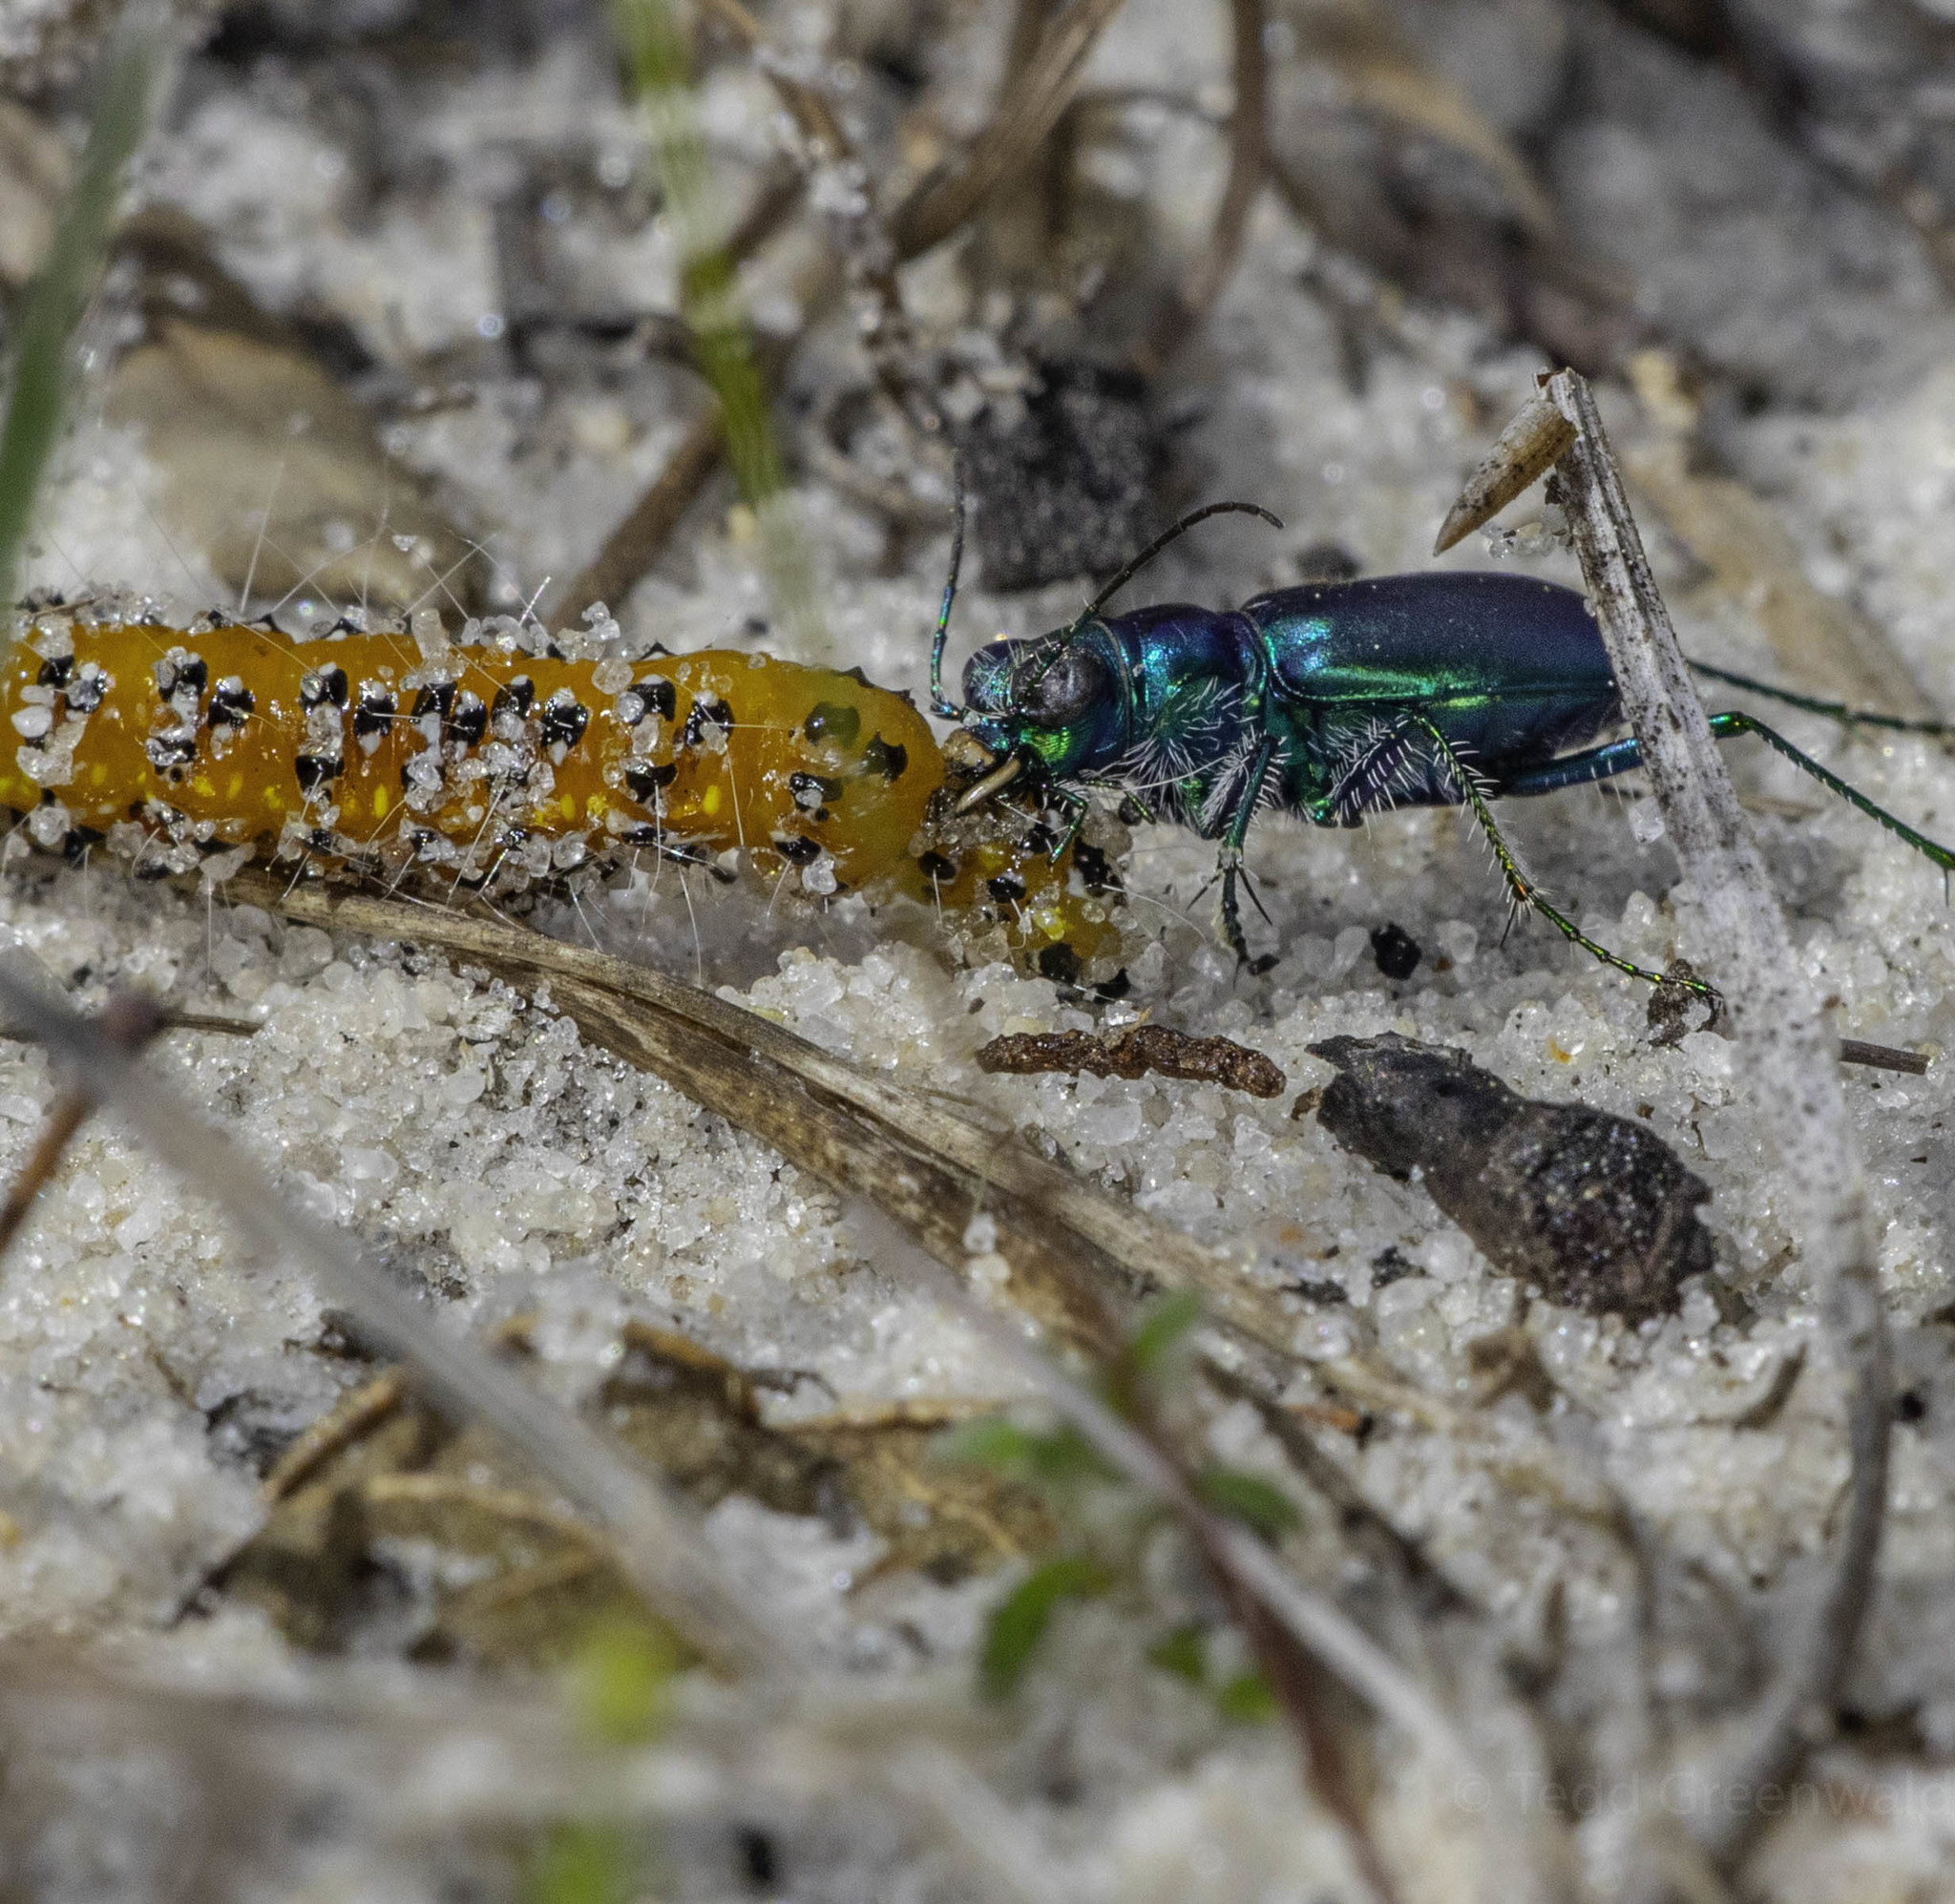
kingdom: Animalia
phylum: Arthropoda
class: Insecta
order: Coleoptera
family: Carabidae
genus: Cicindela
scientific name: Cicindela scutellaris
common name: Festive tiger beetle
